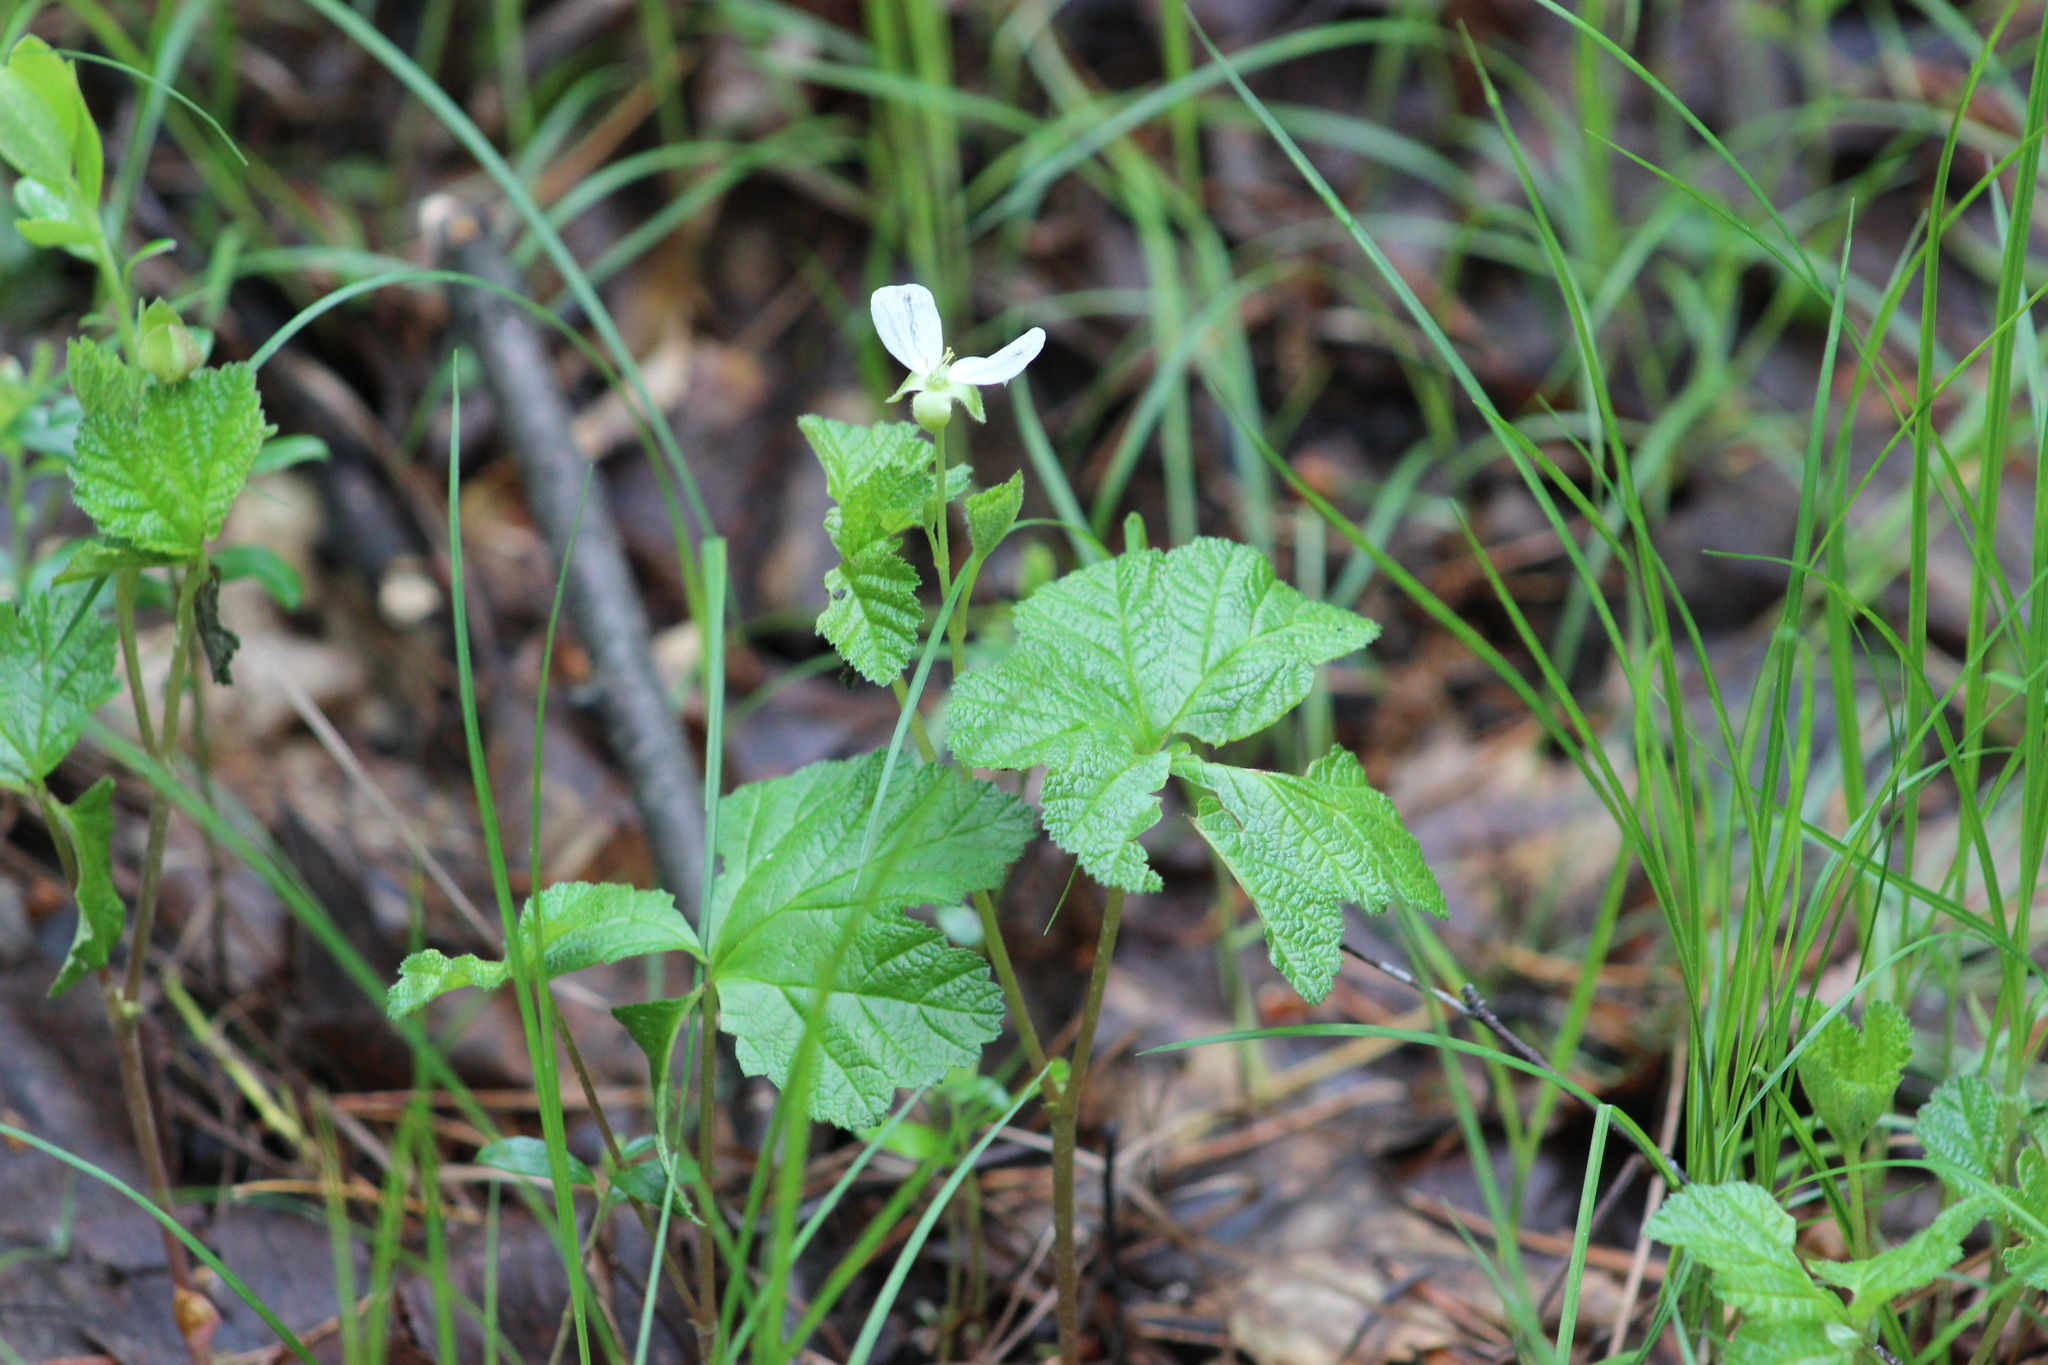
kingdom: Plantae
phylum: Tracheophyta
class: Magnoliopsida
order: Rosales
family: Rosaceae
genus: Rubus
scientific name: Rubus chamaemorus
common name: Cloudberry
